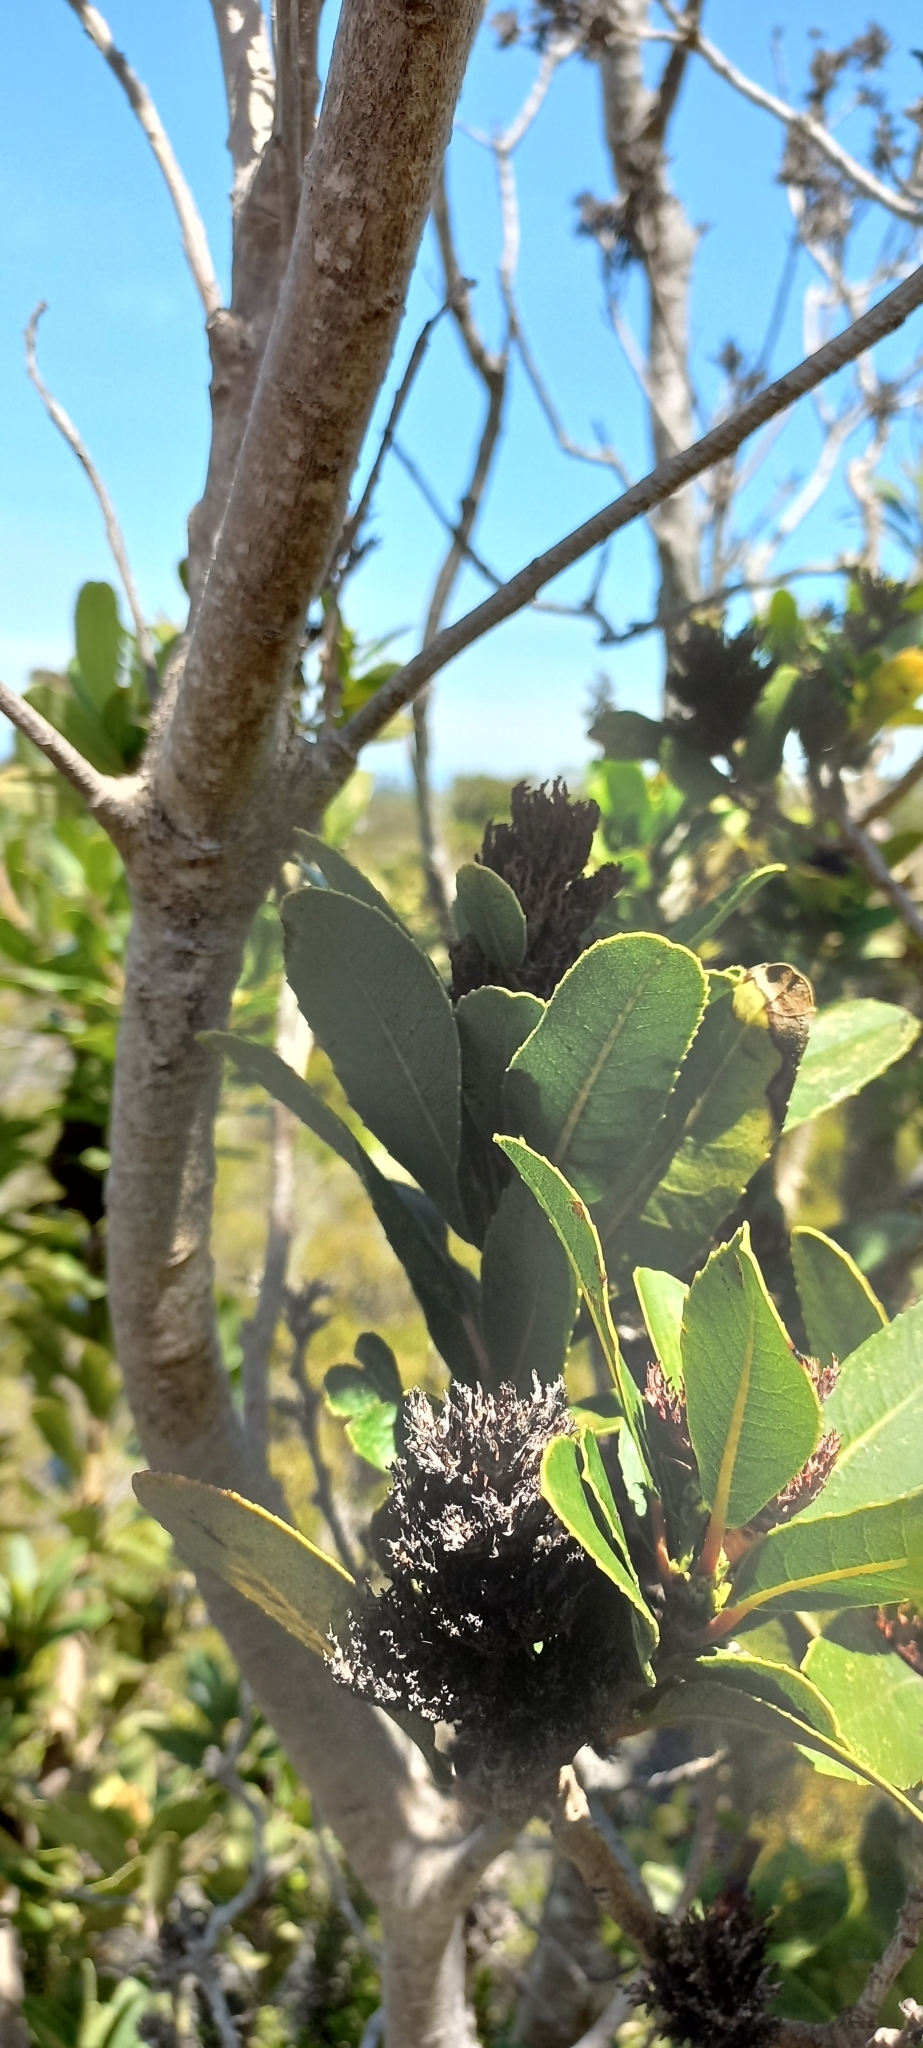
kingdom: Plantae
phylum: Tracheophyta
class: Magnoliopsida
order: Sapindales
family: Anacardiaceae
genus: Laurophyllus
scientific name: Laurophyllus capensis
